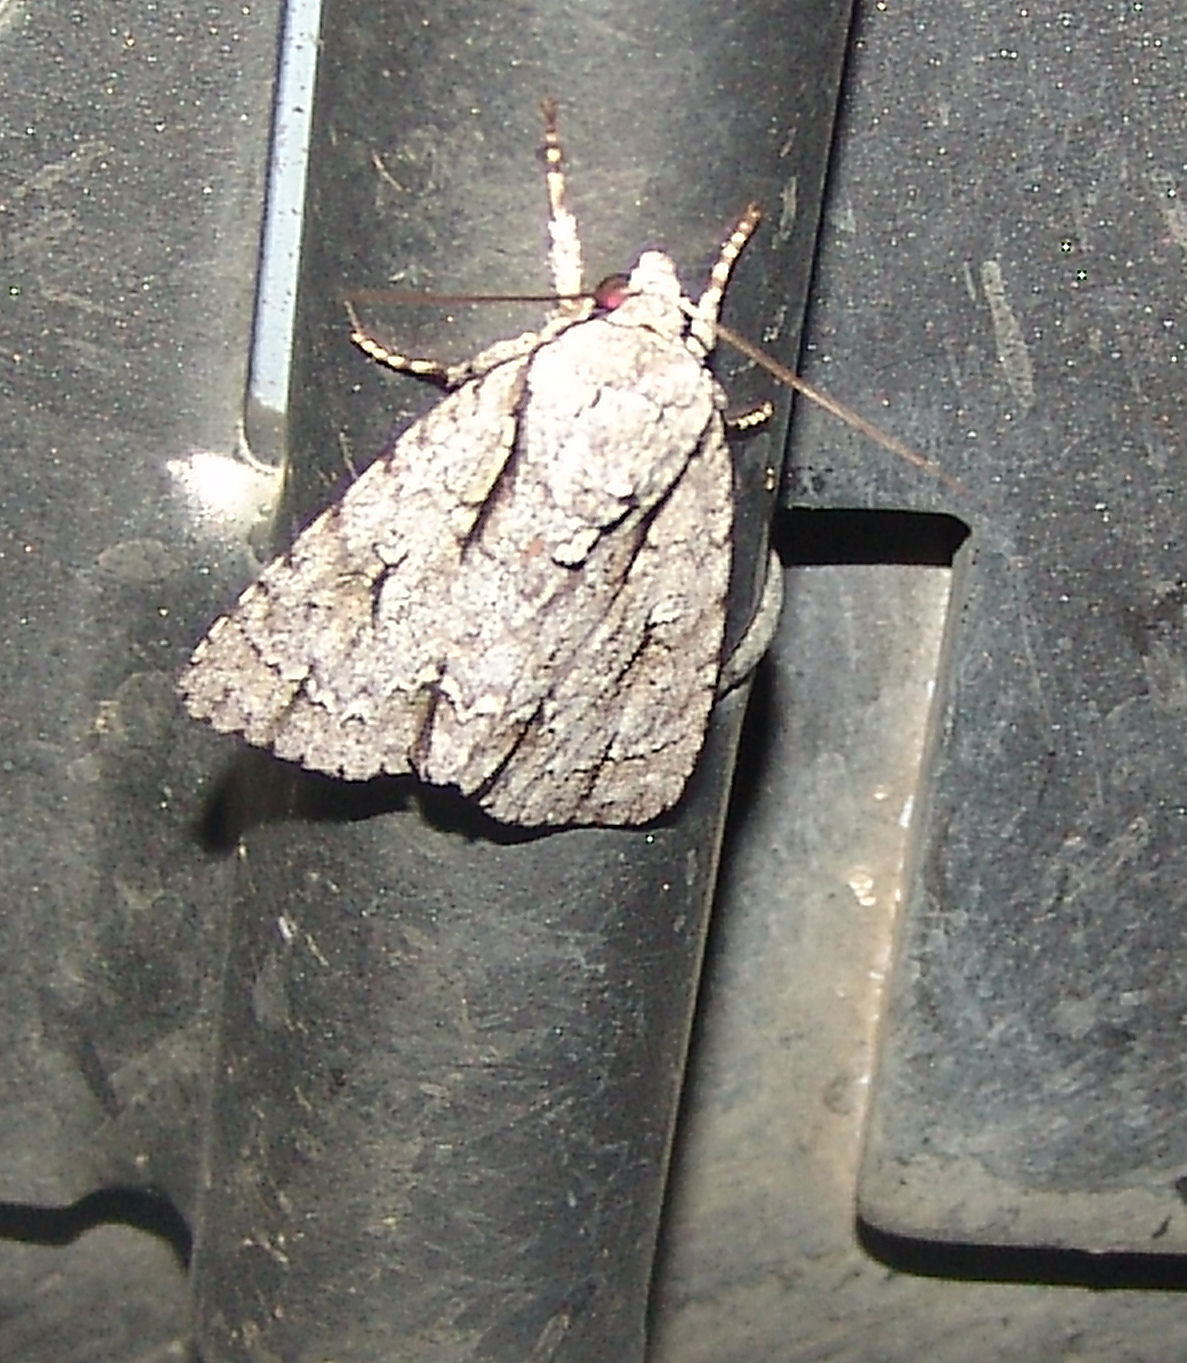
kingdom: Animalia
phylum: Arthropoda
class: Insecta
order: Lepidoptera
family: Noctuidae
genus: Acronicta
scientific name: Acronicta lobeliae
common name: Greater oak dagger
